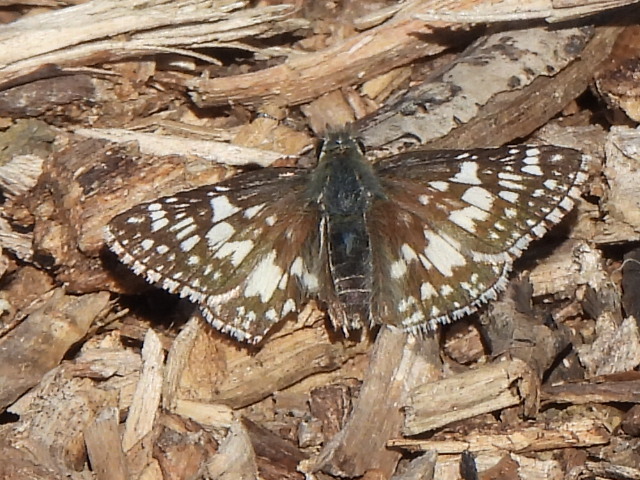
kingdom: Animalia
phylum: Arthropoda
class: Insecta
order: Lepidoptera
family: Hesperiidae
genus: Burnsius
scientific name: Burnsius
